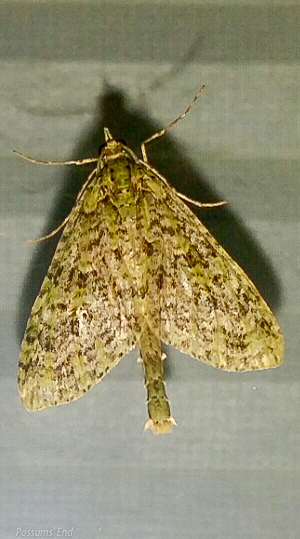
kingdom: Animalia
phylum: Arthropoda
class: Insecta
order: Lepidoptera
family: Geometridae
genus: Tatosoma
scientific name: Tatosoma tipulata
